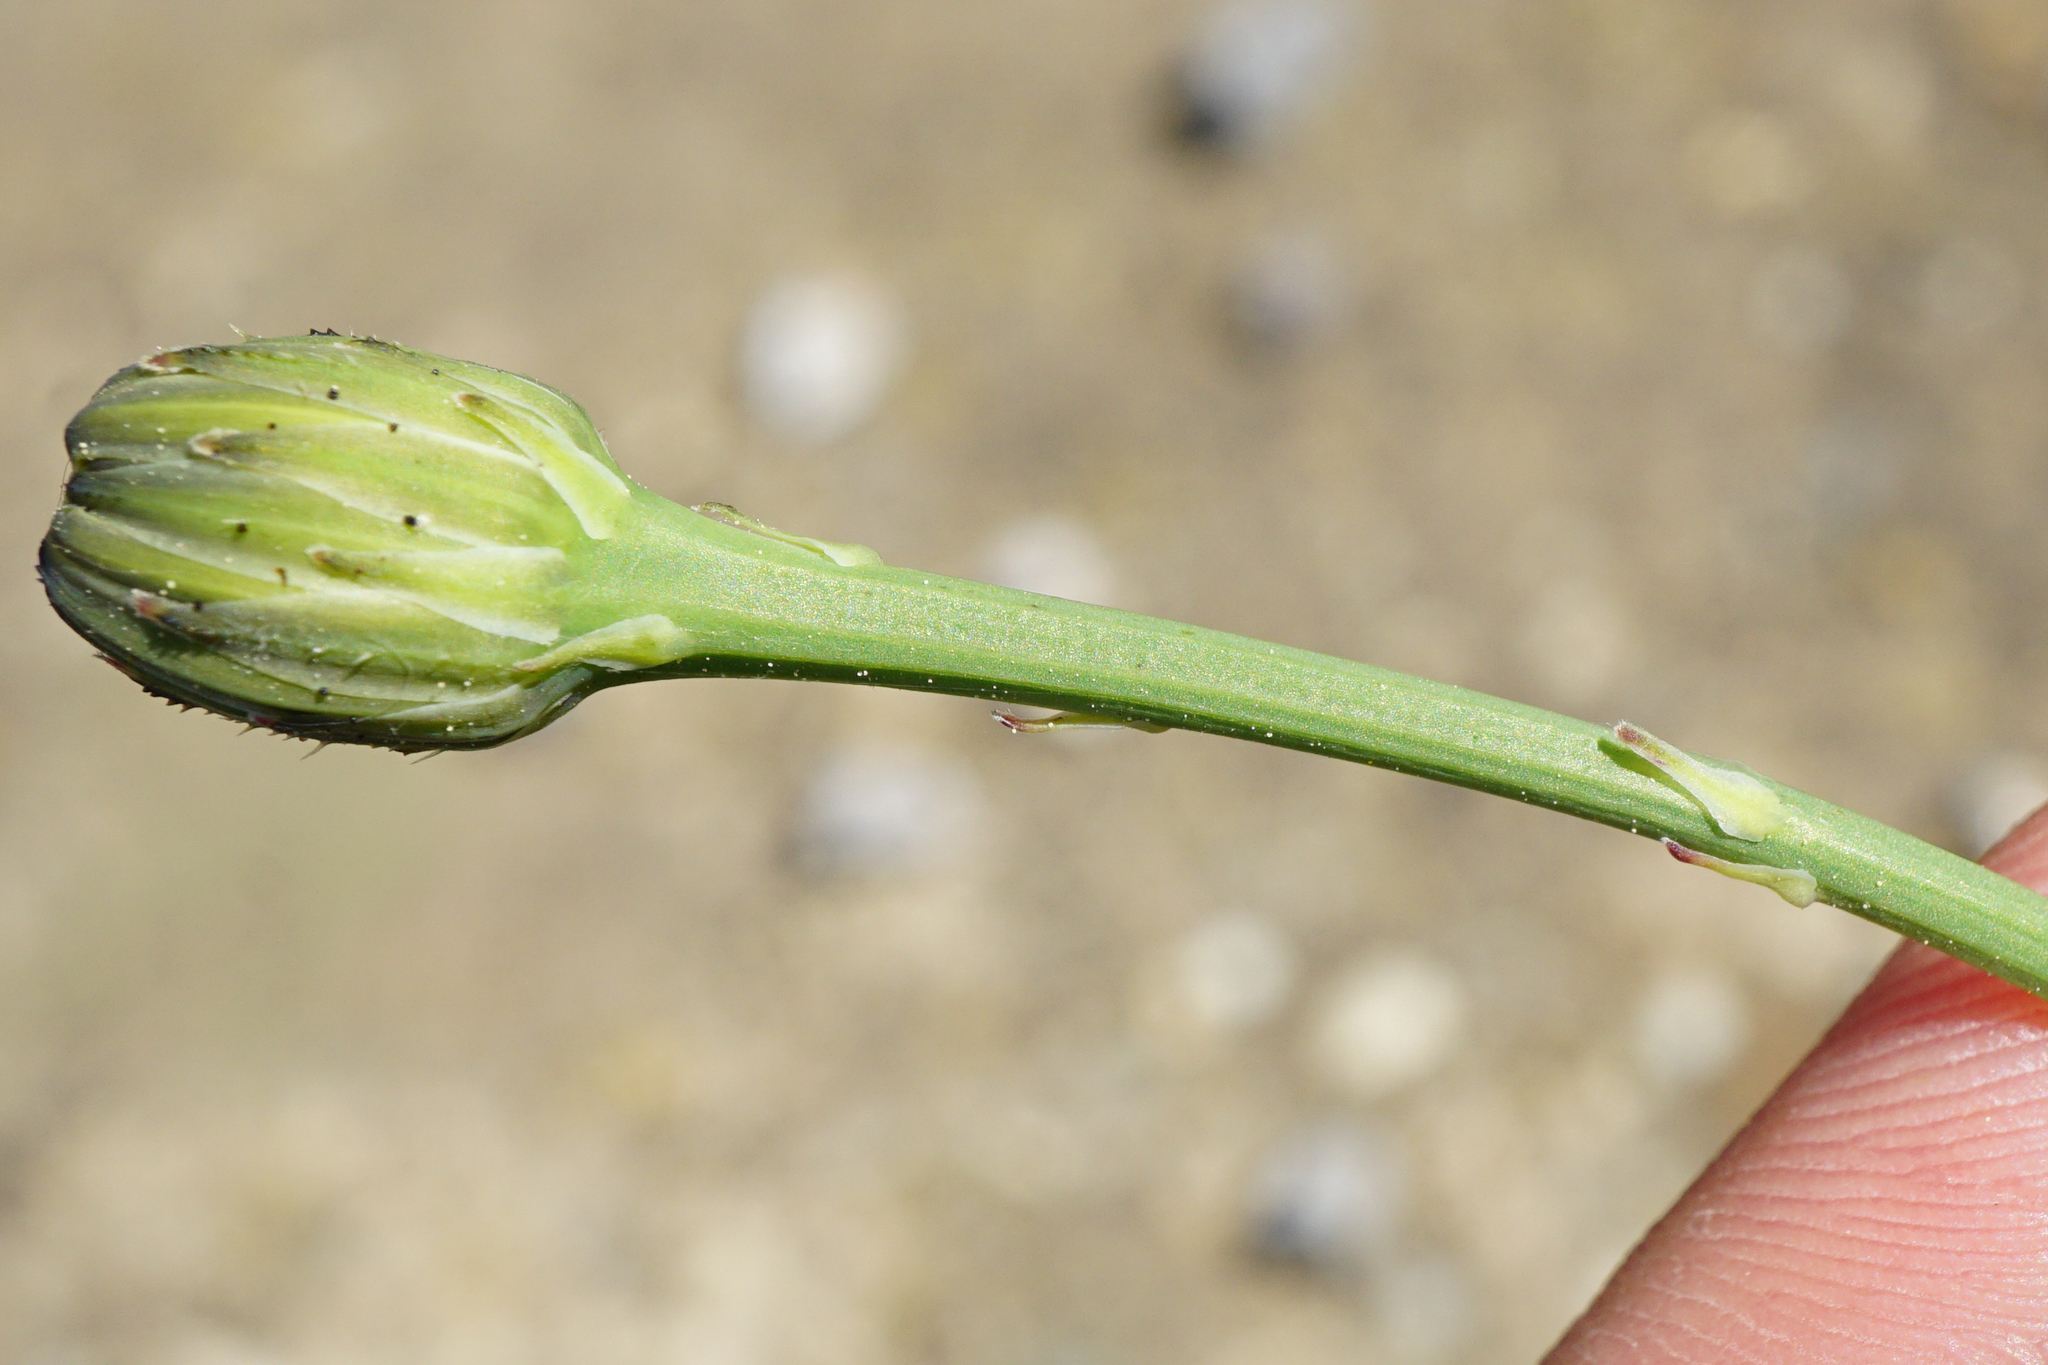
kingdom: Plantae
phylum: Tracheophyta
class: Magnoliopsida
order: Asterales
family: Asteraceae
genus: Hypochaeris
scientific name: Hypochaeris radicata
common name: Flatweed
